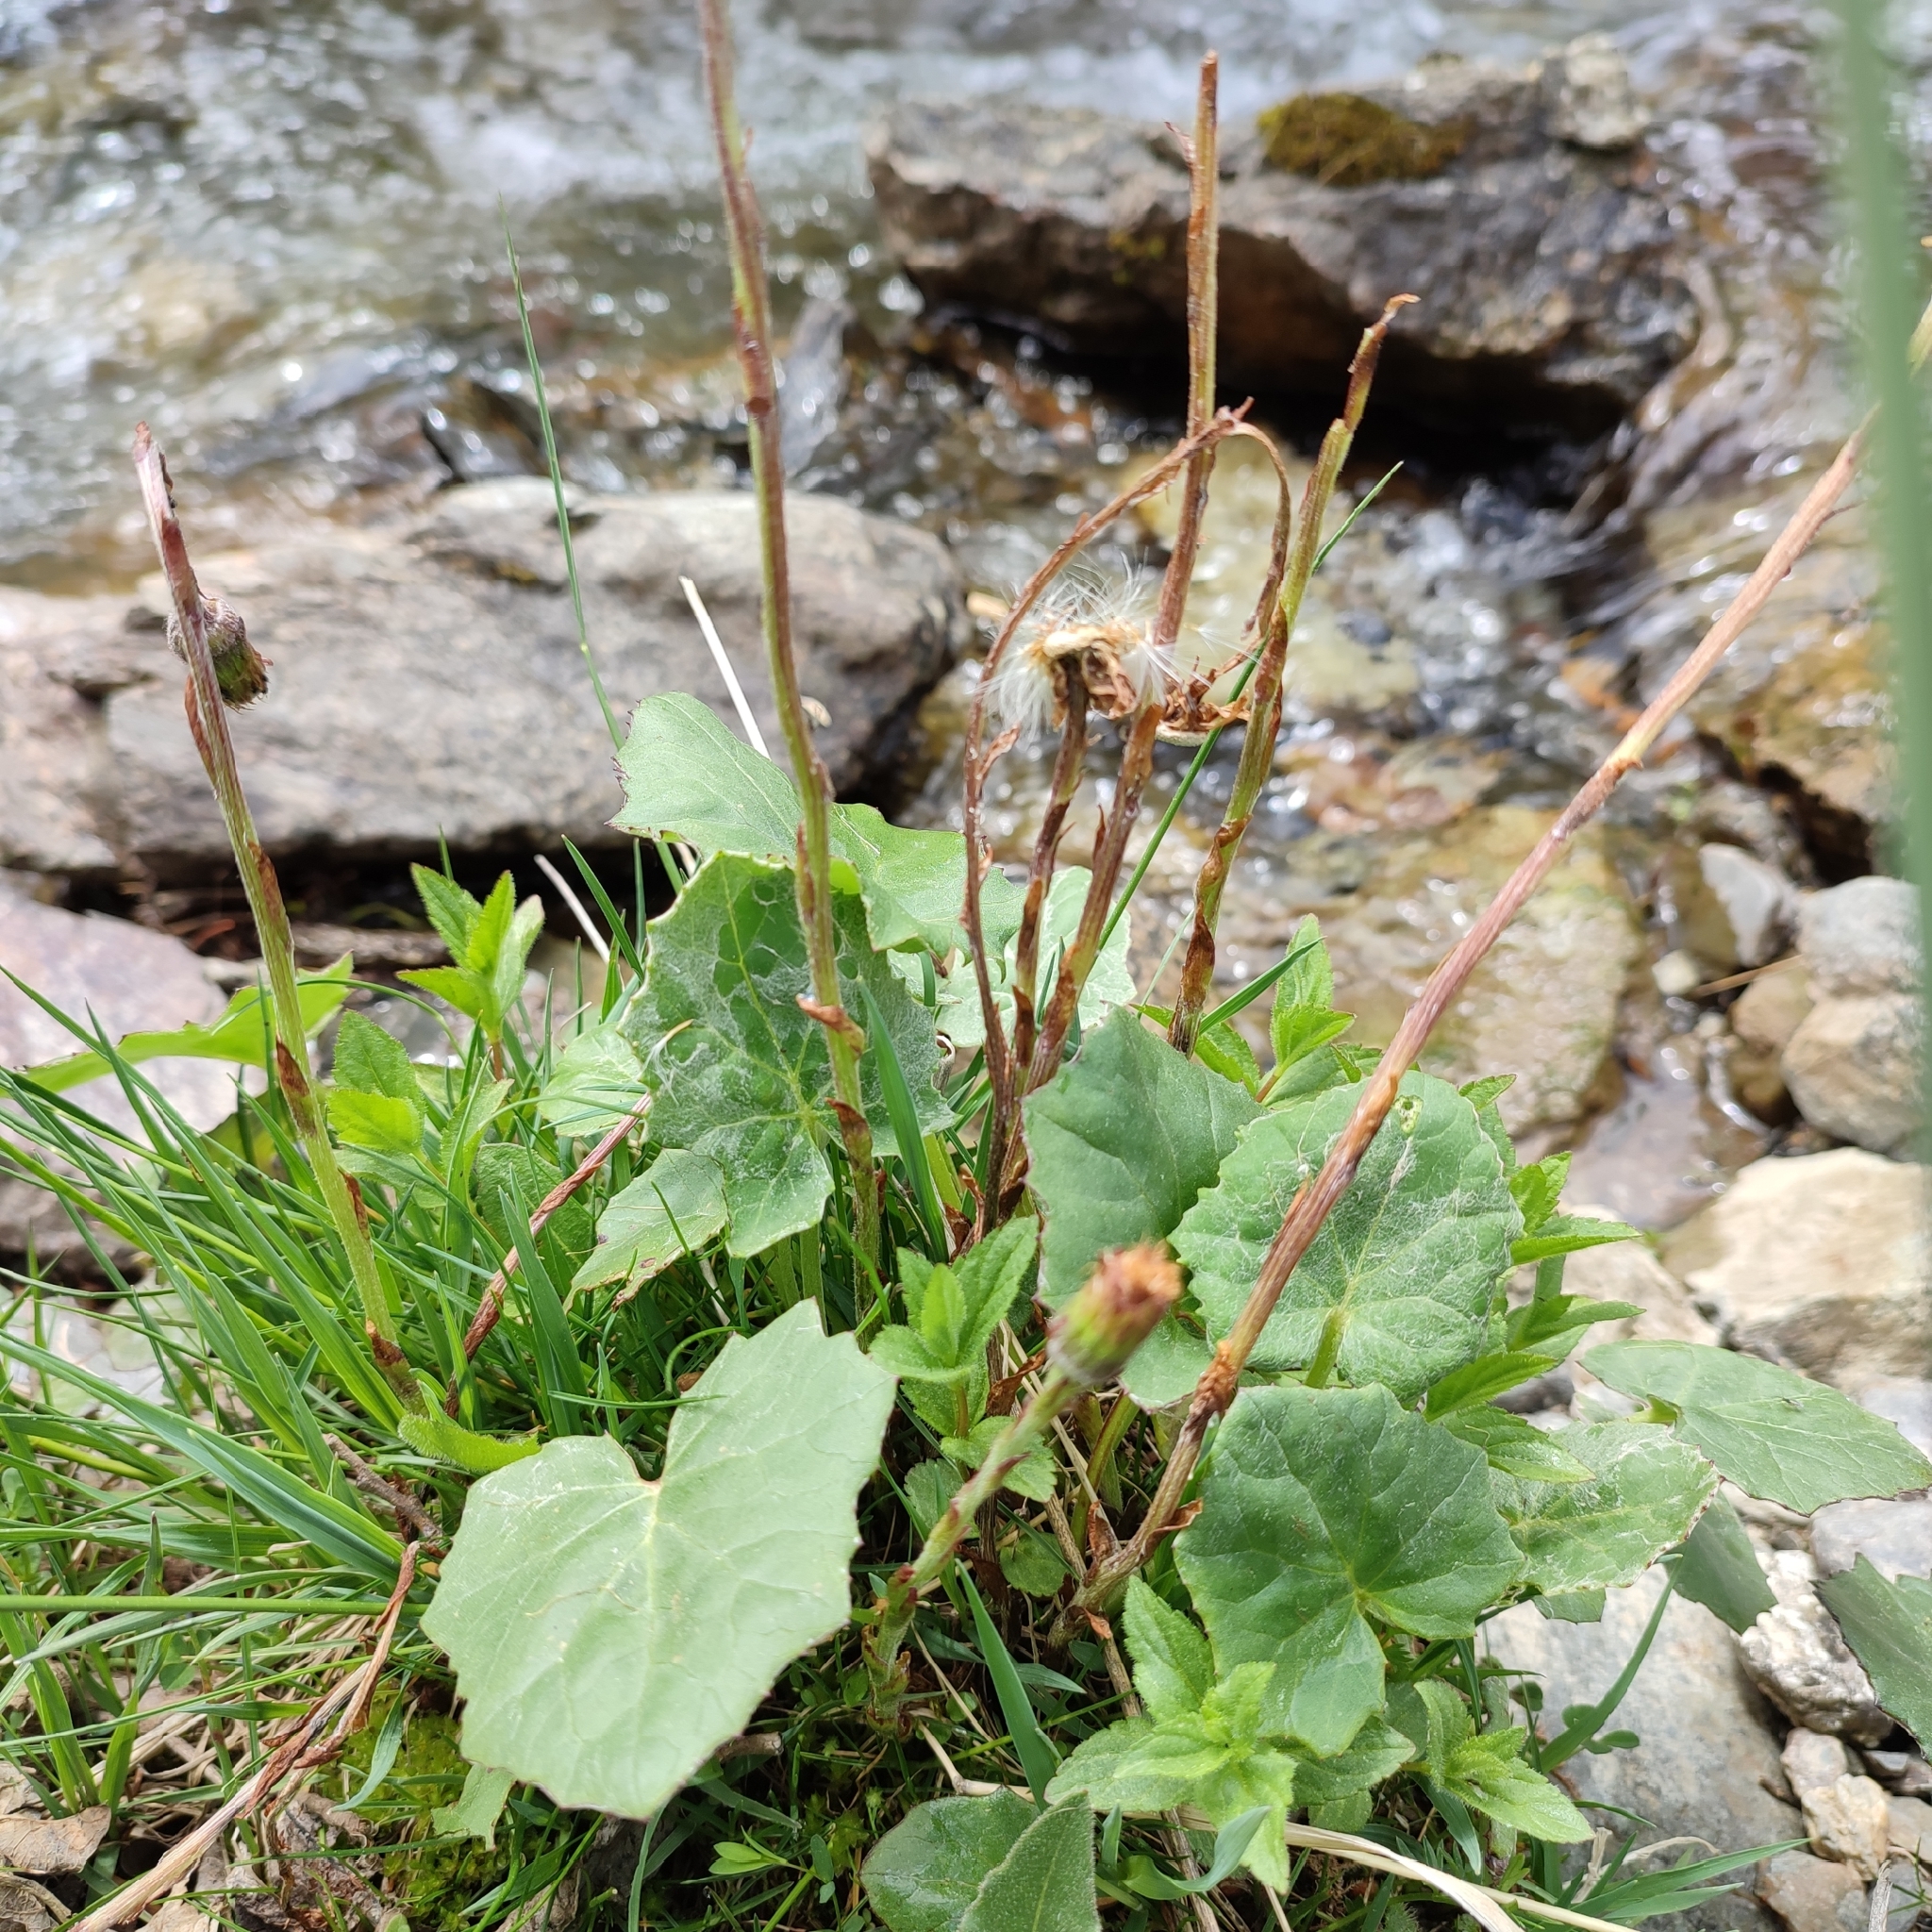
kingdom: Plantae
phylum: Tracheophyta
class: Magnoliopsida
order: Asterales
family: Asteraceae
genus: Tussilago
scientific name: Tussilago farfara
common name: Coltsfoot
